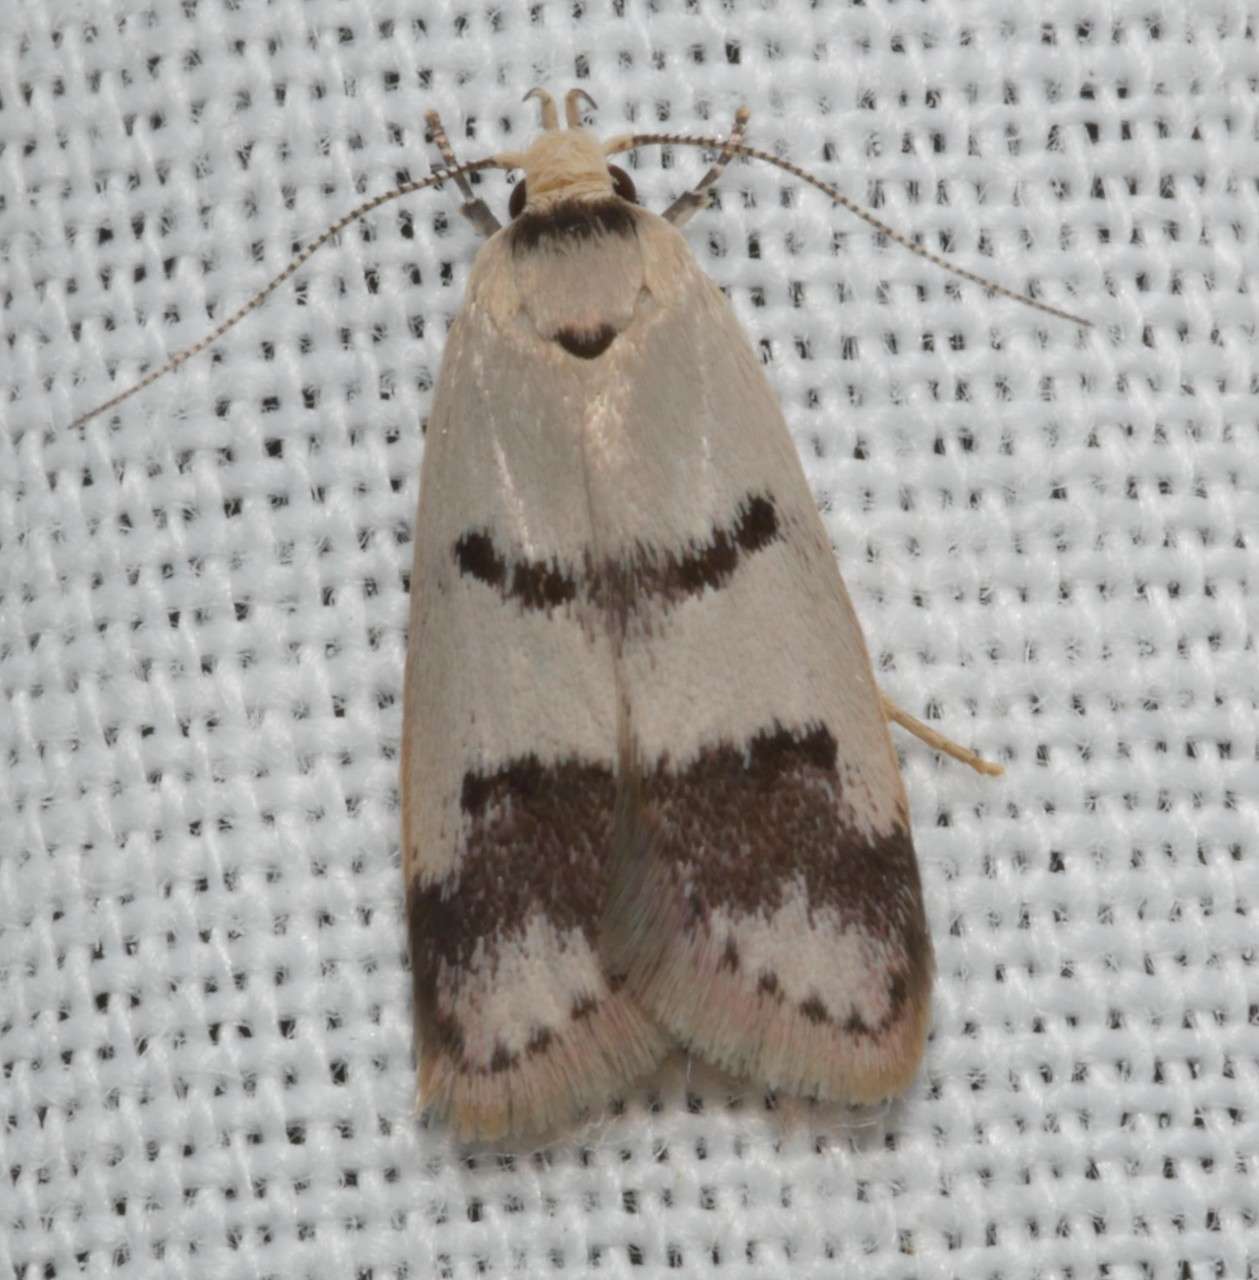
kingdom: Animalia
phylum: Arthropoda
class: Insecta
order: Lepidoptera
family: Oecophoridae
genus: Compsotropha
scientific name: Compsotropha strophiella
